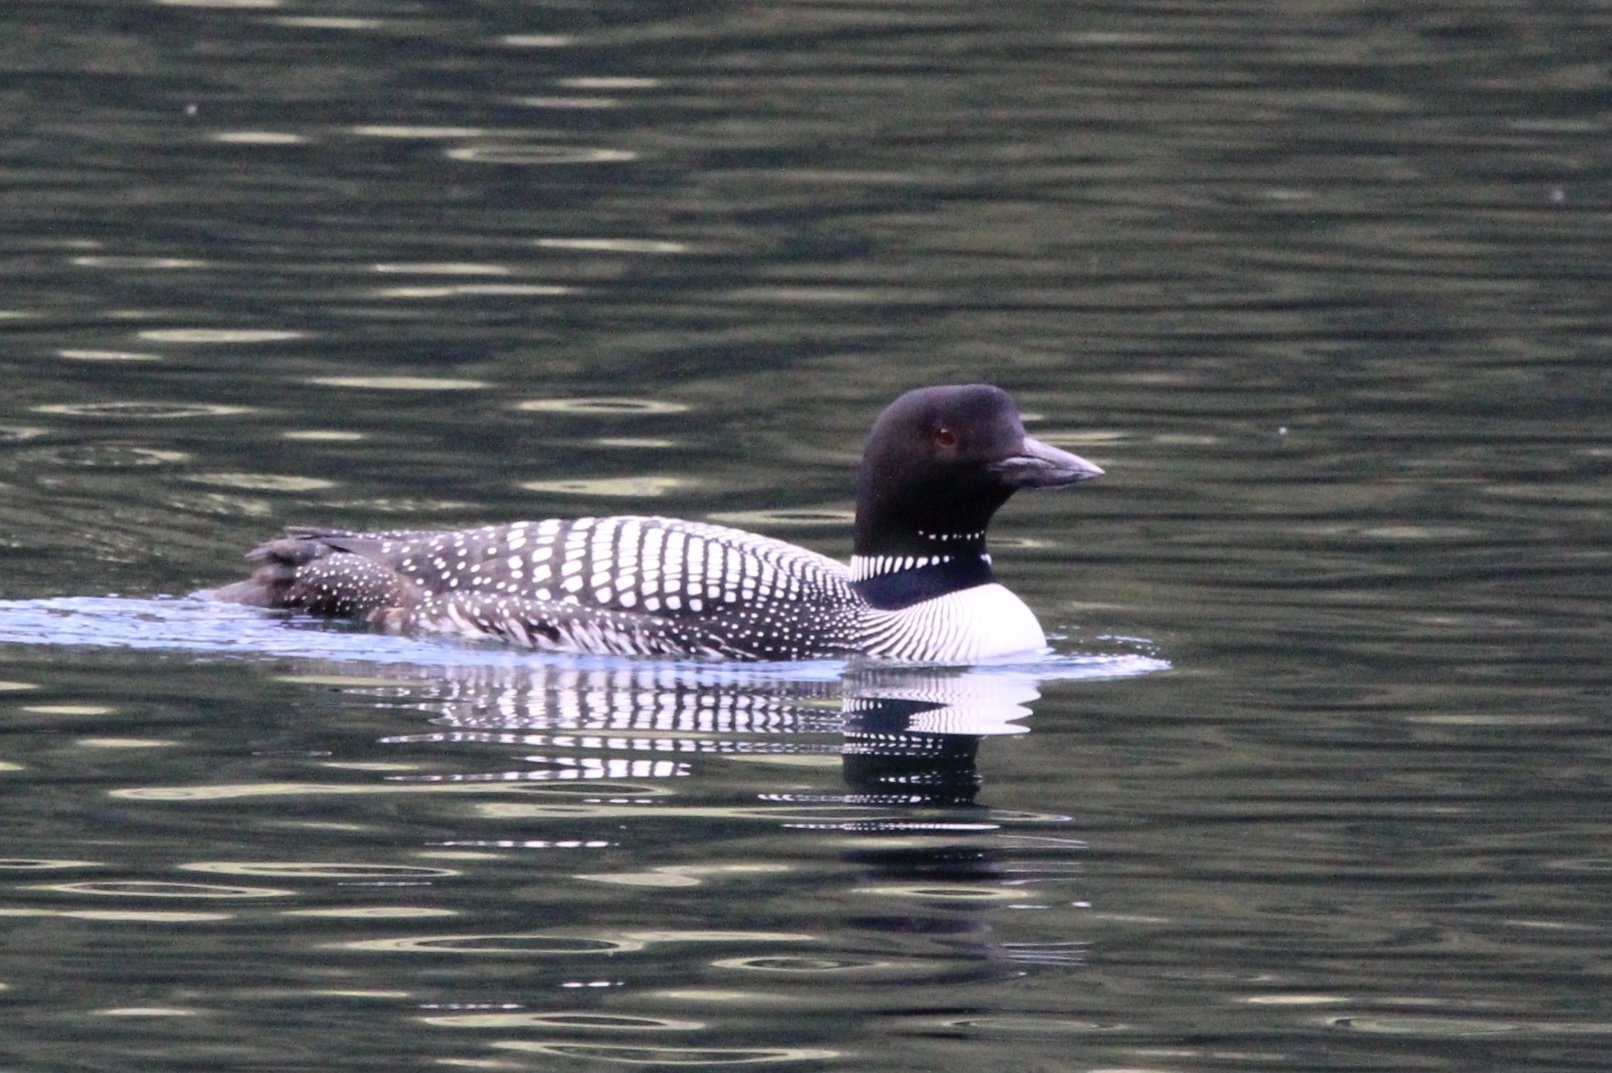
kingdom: Animalia
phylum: Chordata
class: Aves
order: Gaviiformes
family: Gaviidae
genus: Gavia
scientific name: Gavia immer
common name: Common loon
